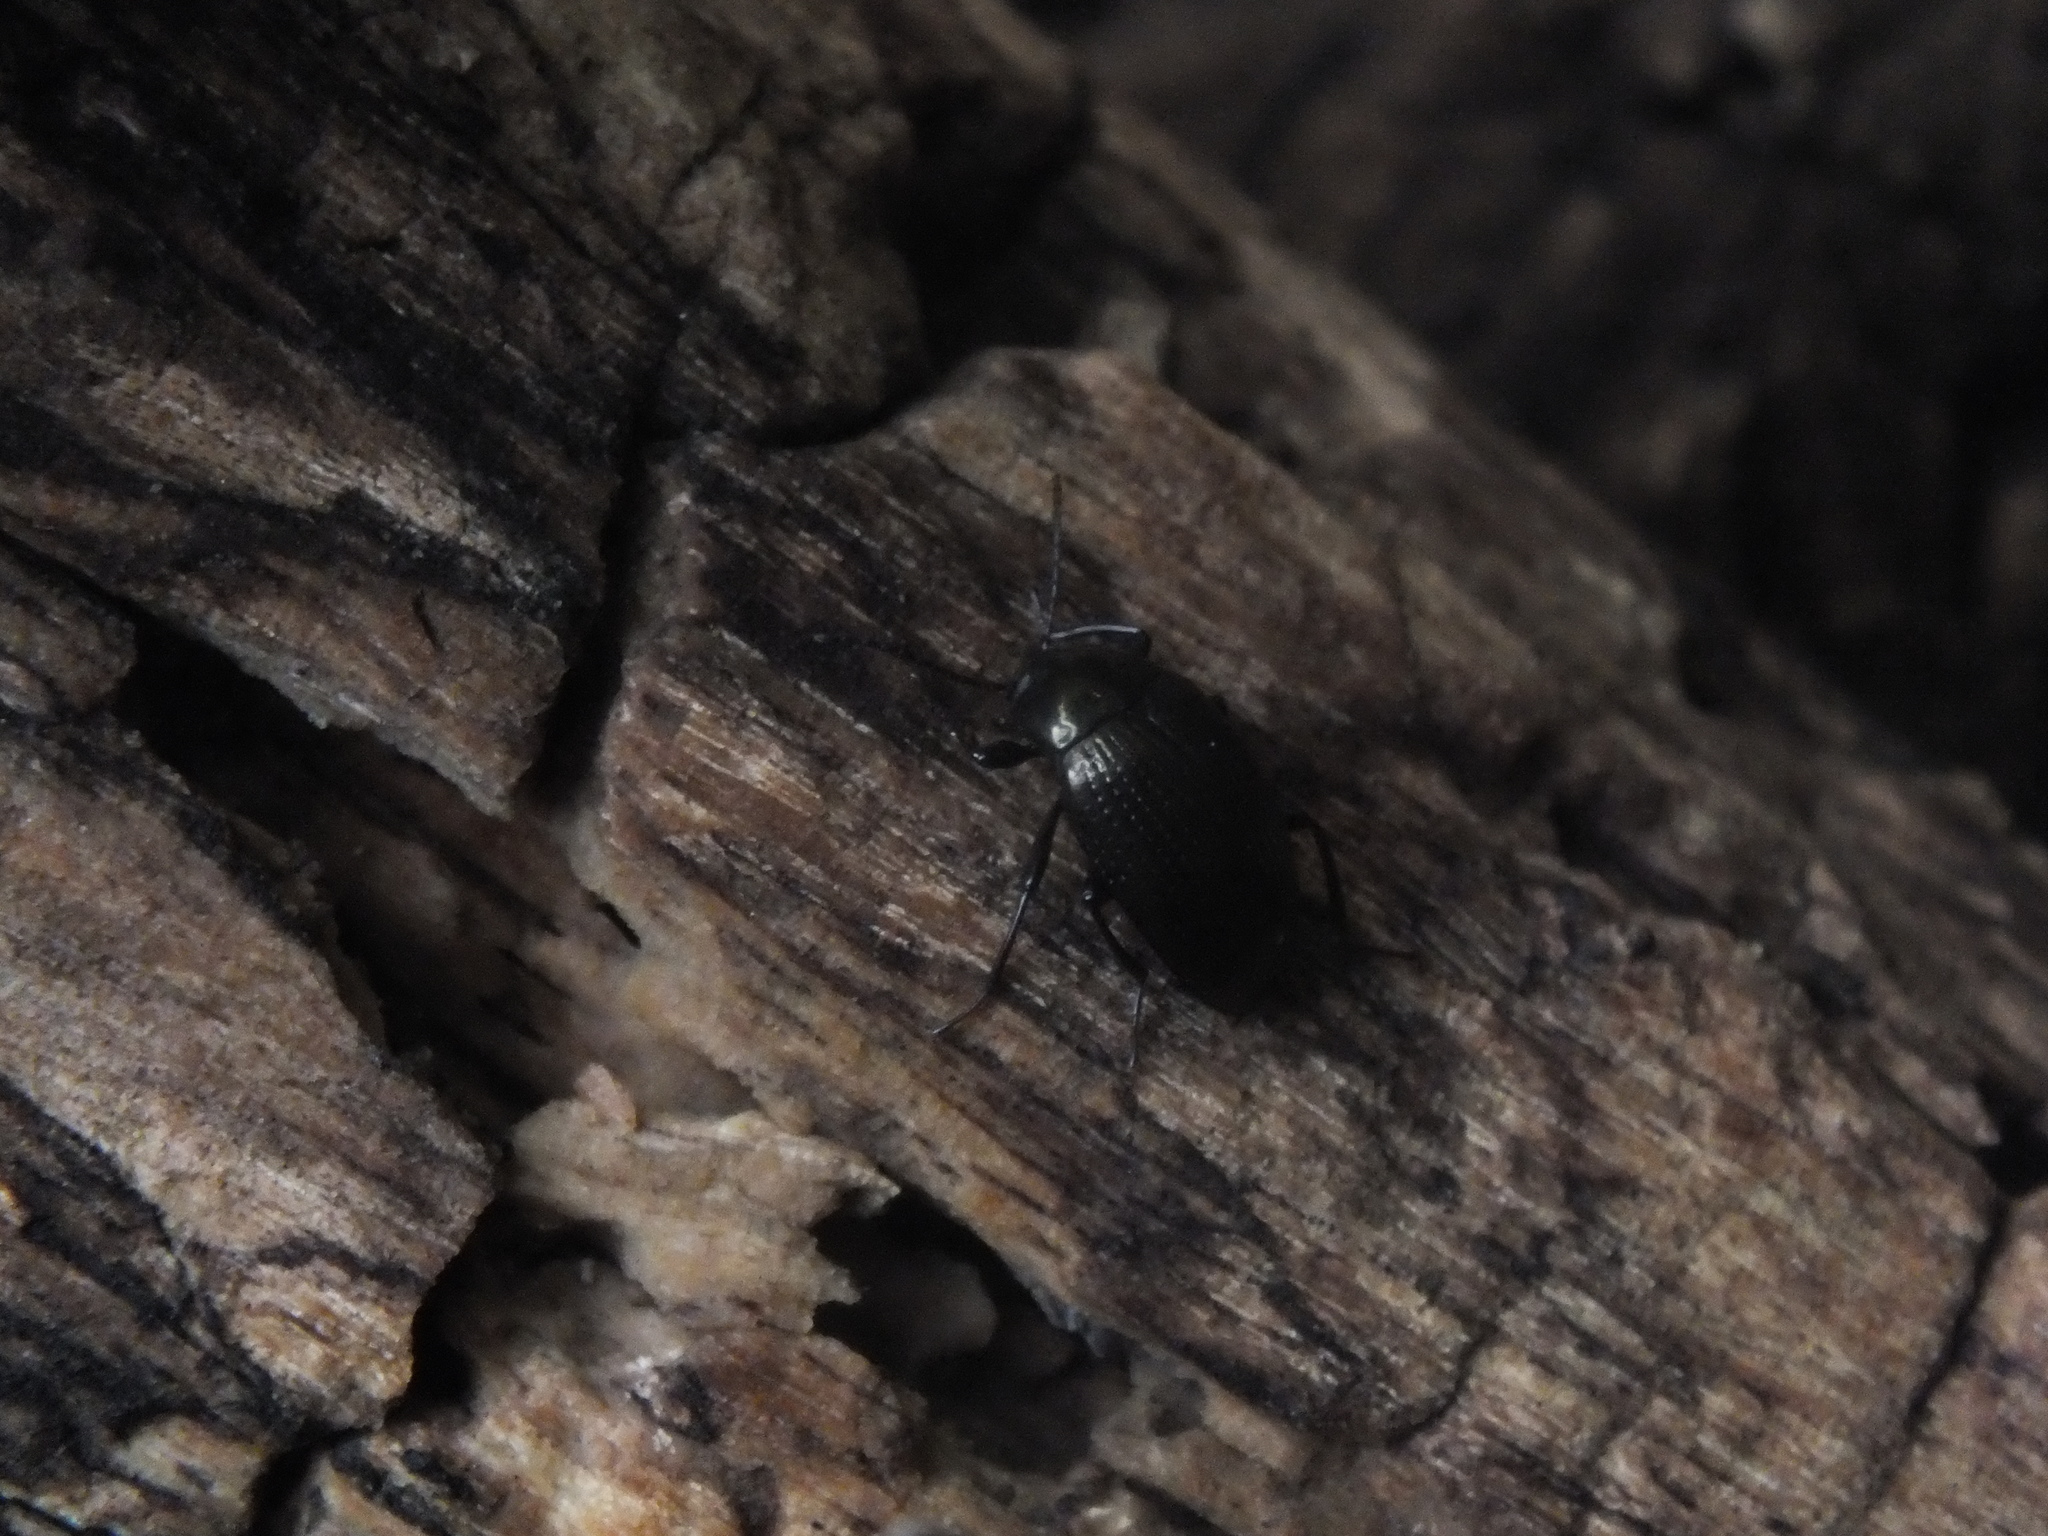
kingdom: Animalia
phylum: Arthropoda
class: Insecta
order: Coleoptera
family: Tenebrionidae
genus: Amarygmus
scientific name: Amarygmus morio
